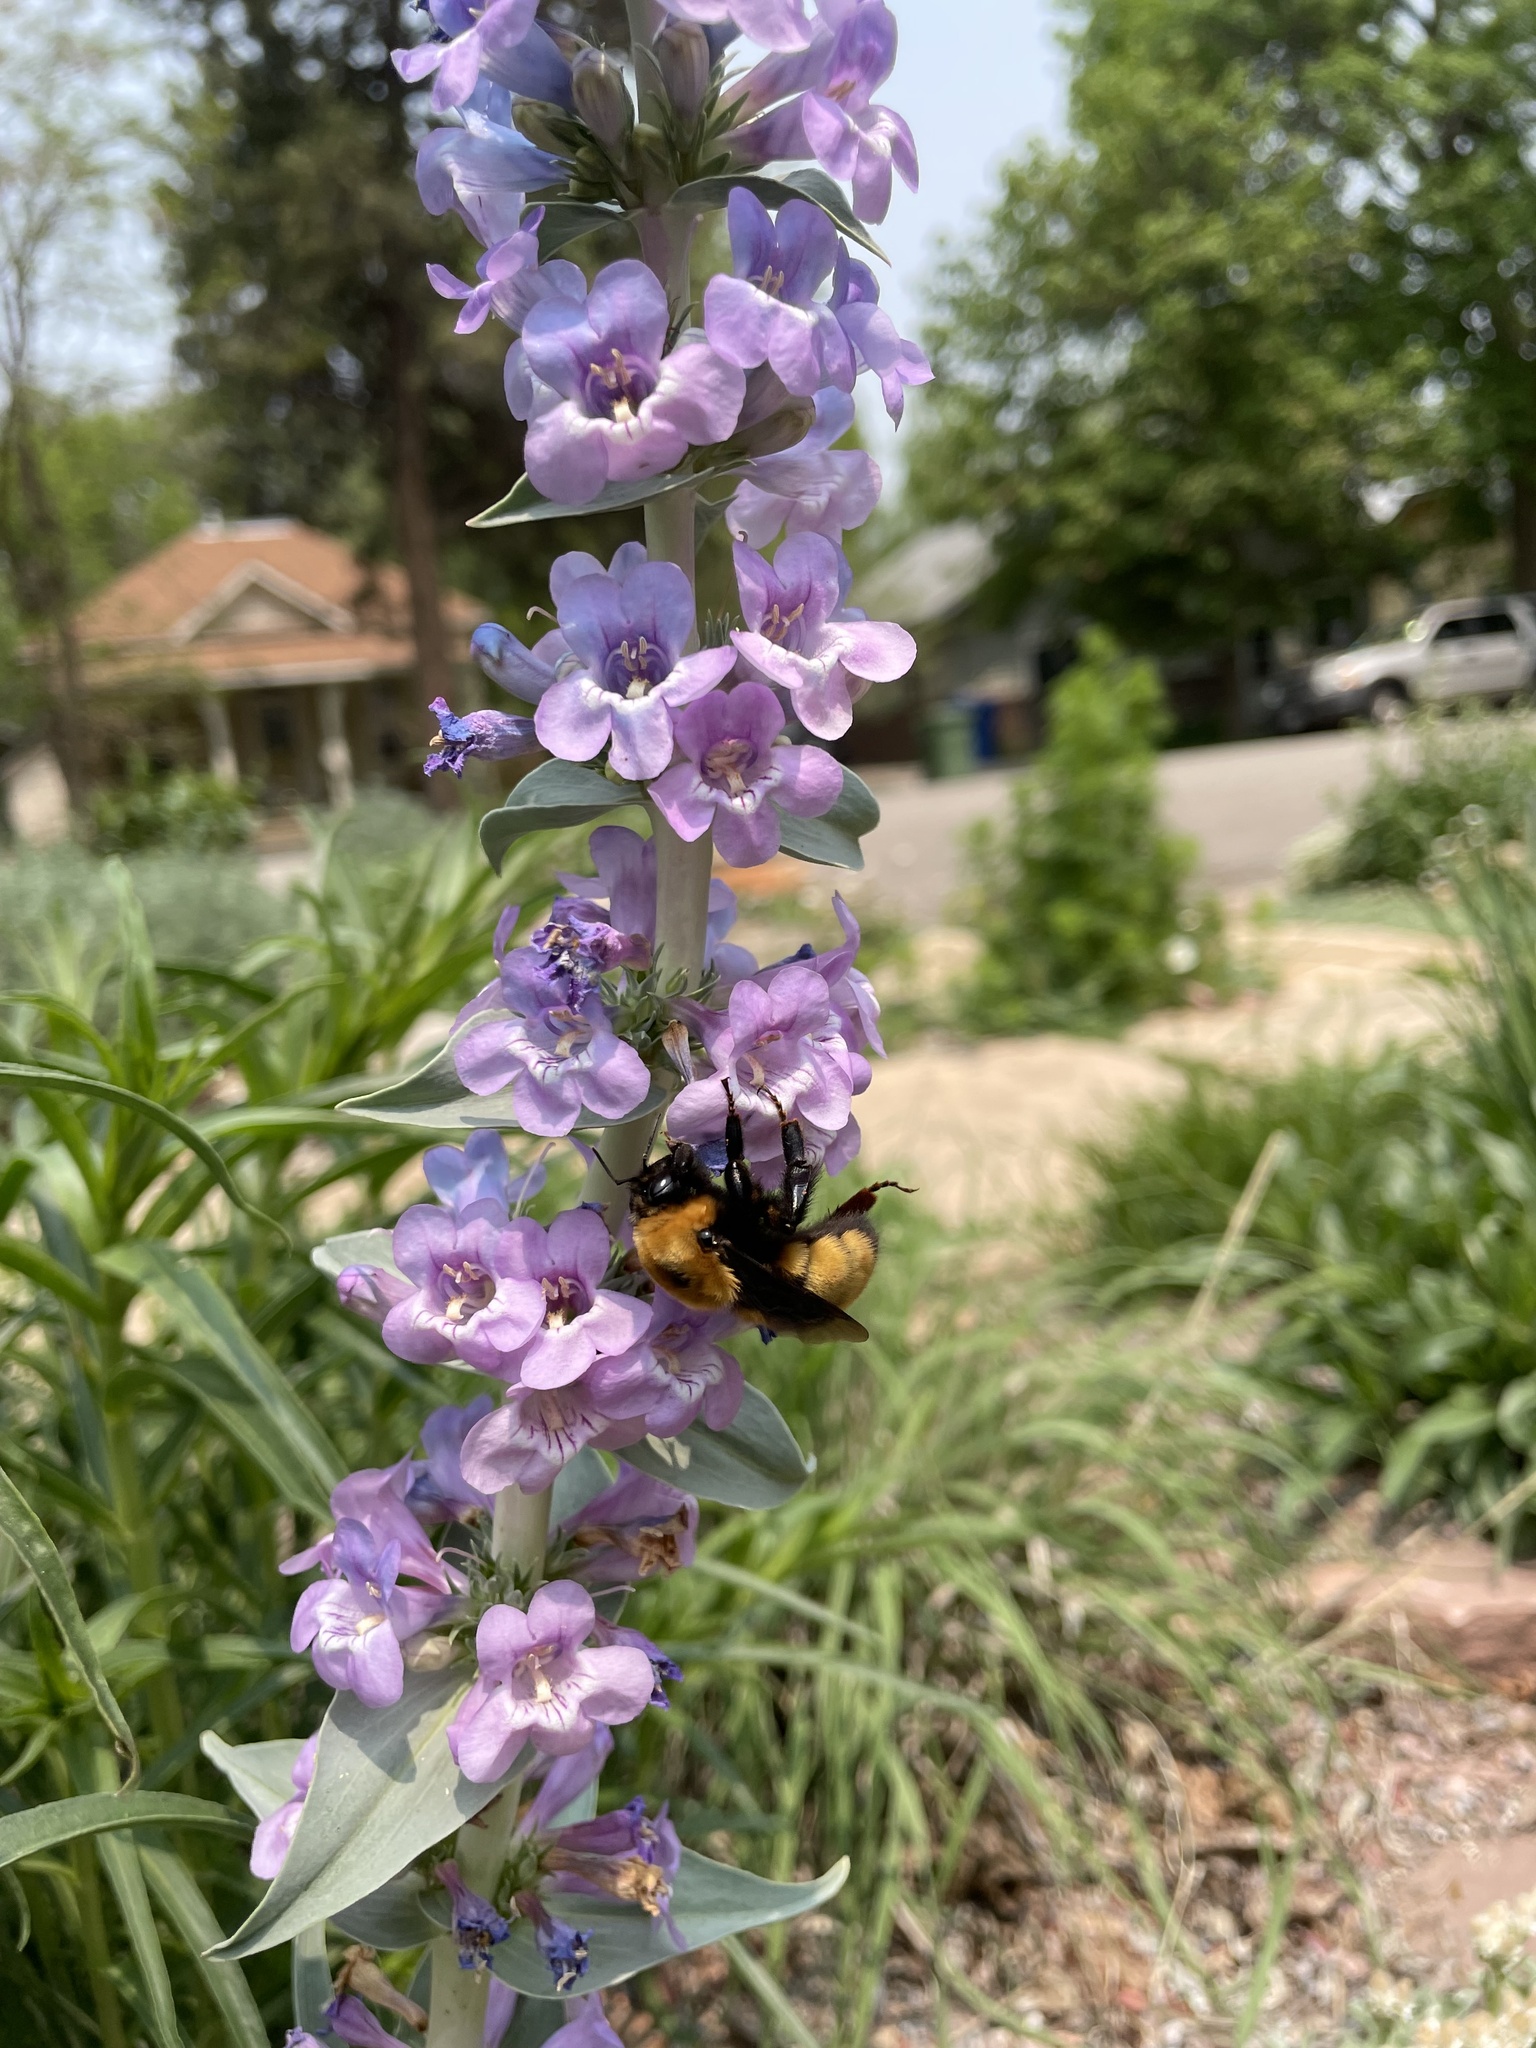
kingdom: Animalia
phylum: Arthropoda
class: Insecta
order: Hymenoptera
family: Apidae
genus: Bombus
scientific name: Bombus nevadensis
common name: Nevada bumble bee
